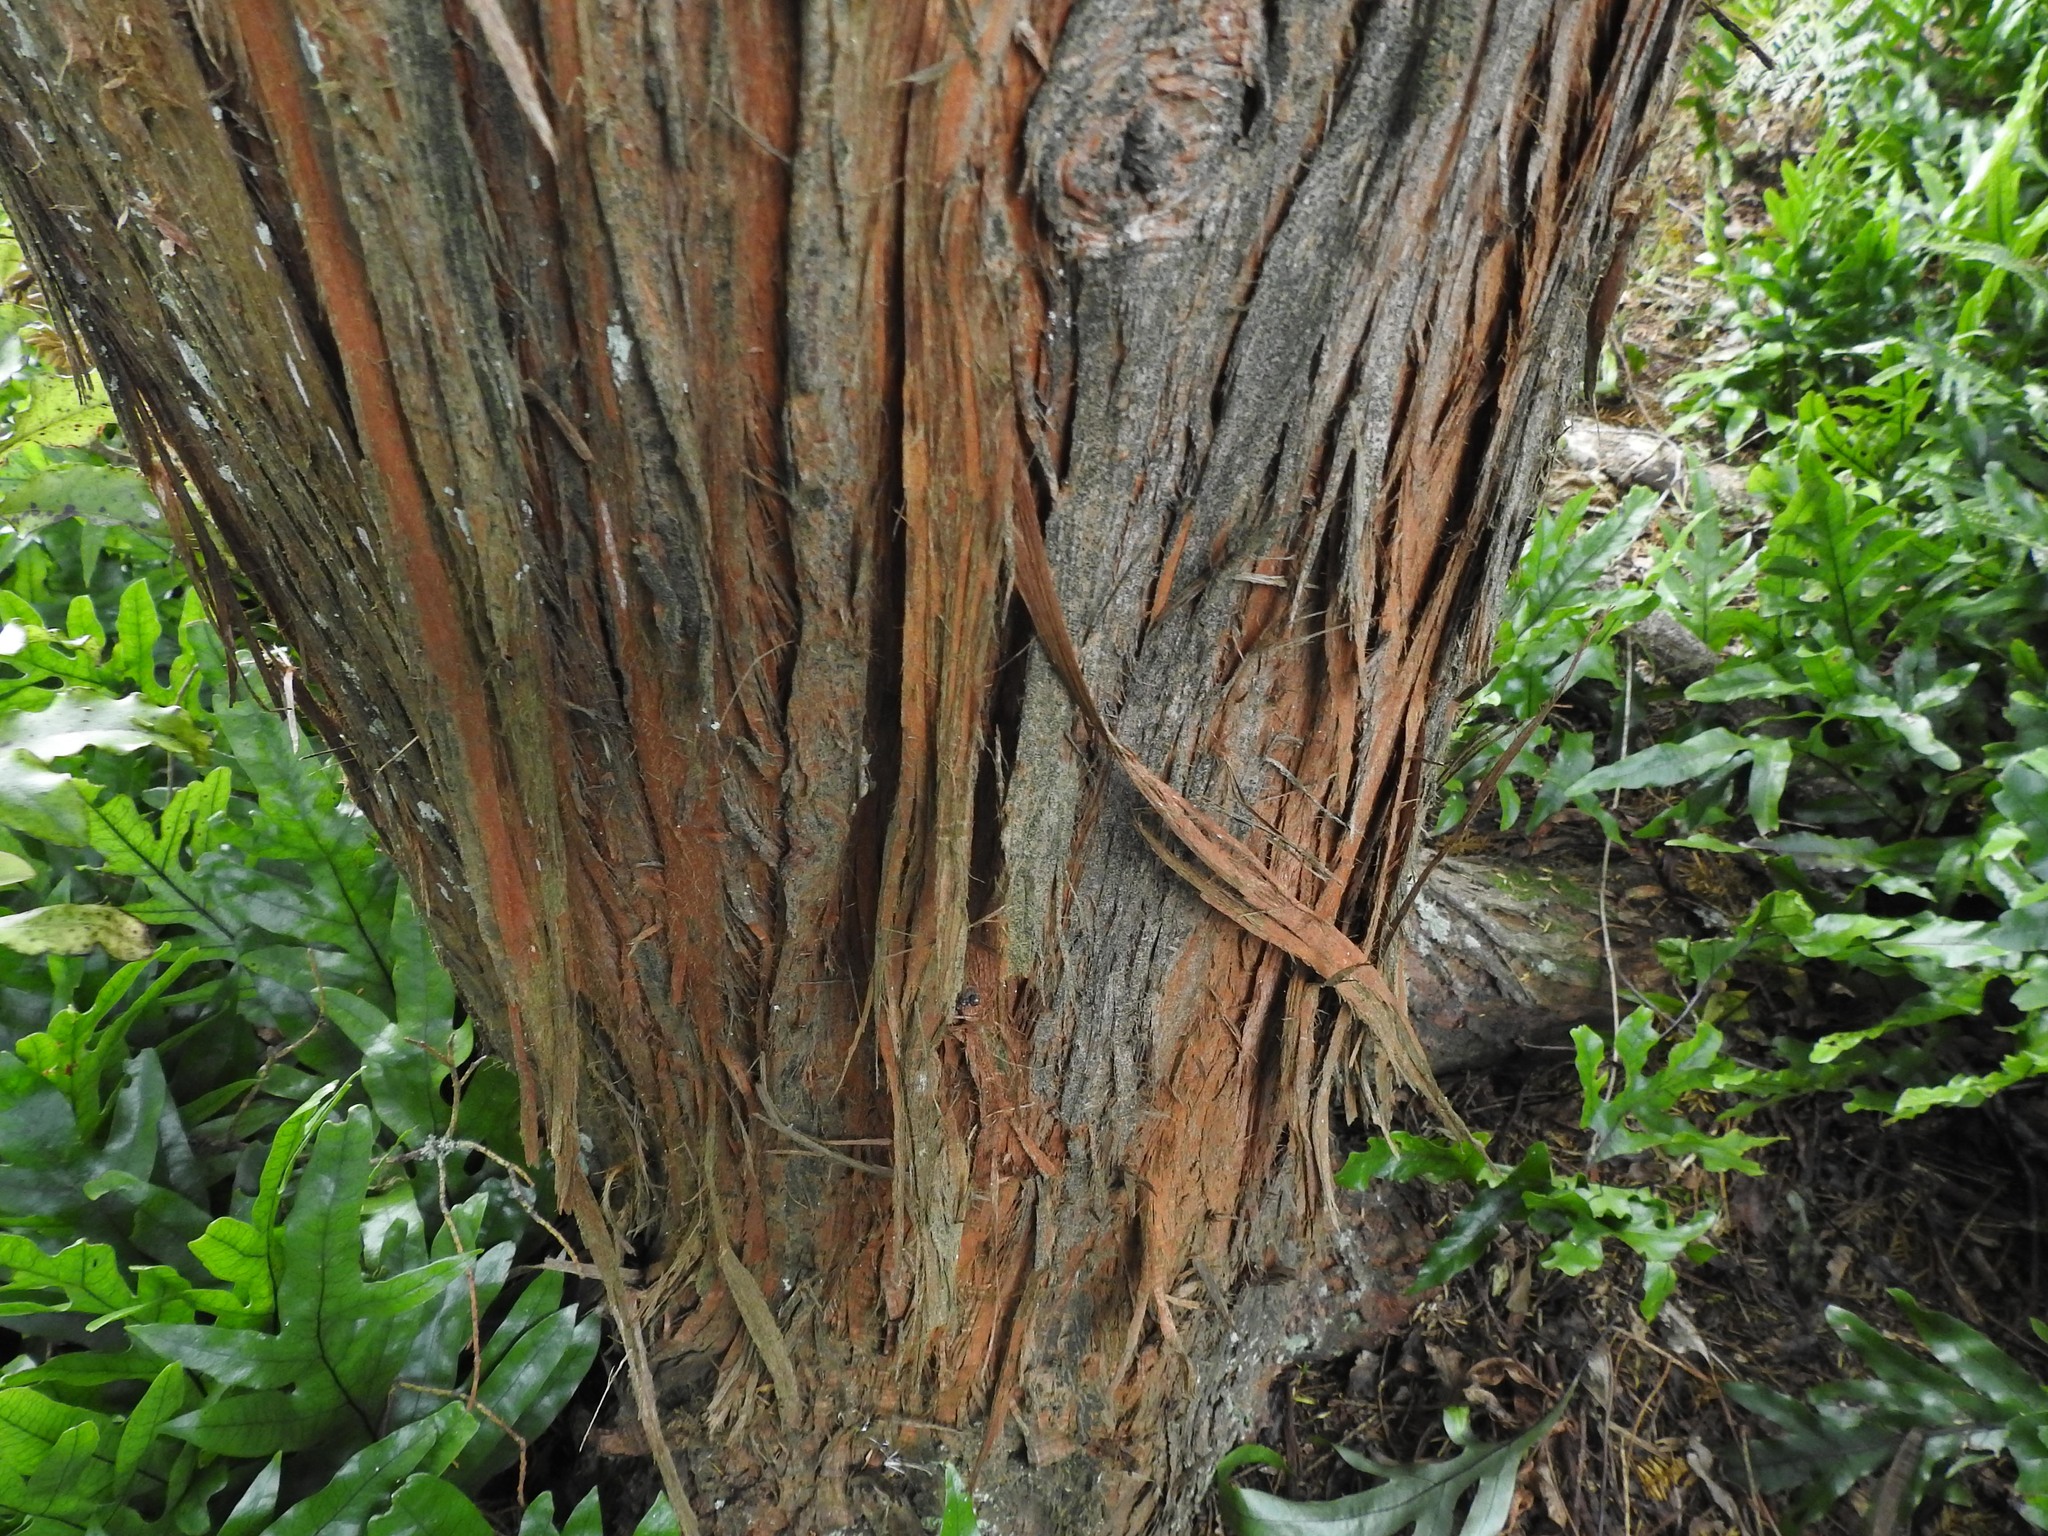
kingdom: Plantae
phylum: Tracheophyta
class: Pinopsida
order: Pinales
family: Podocarpaceae
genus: Podocarpus
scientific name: Podocarpus totara
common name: Totara
